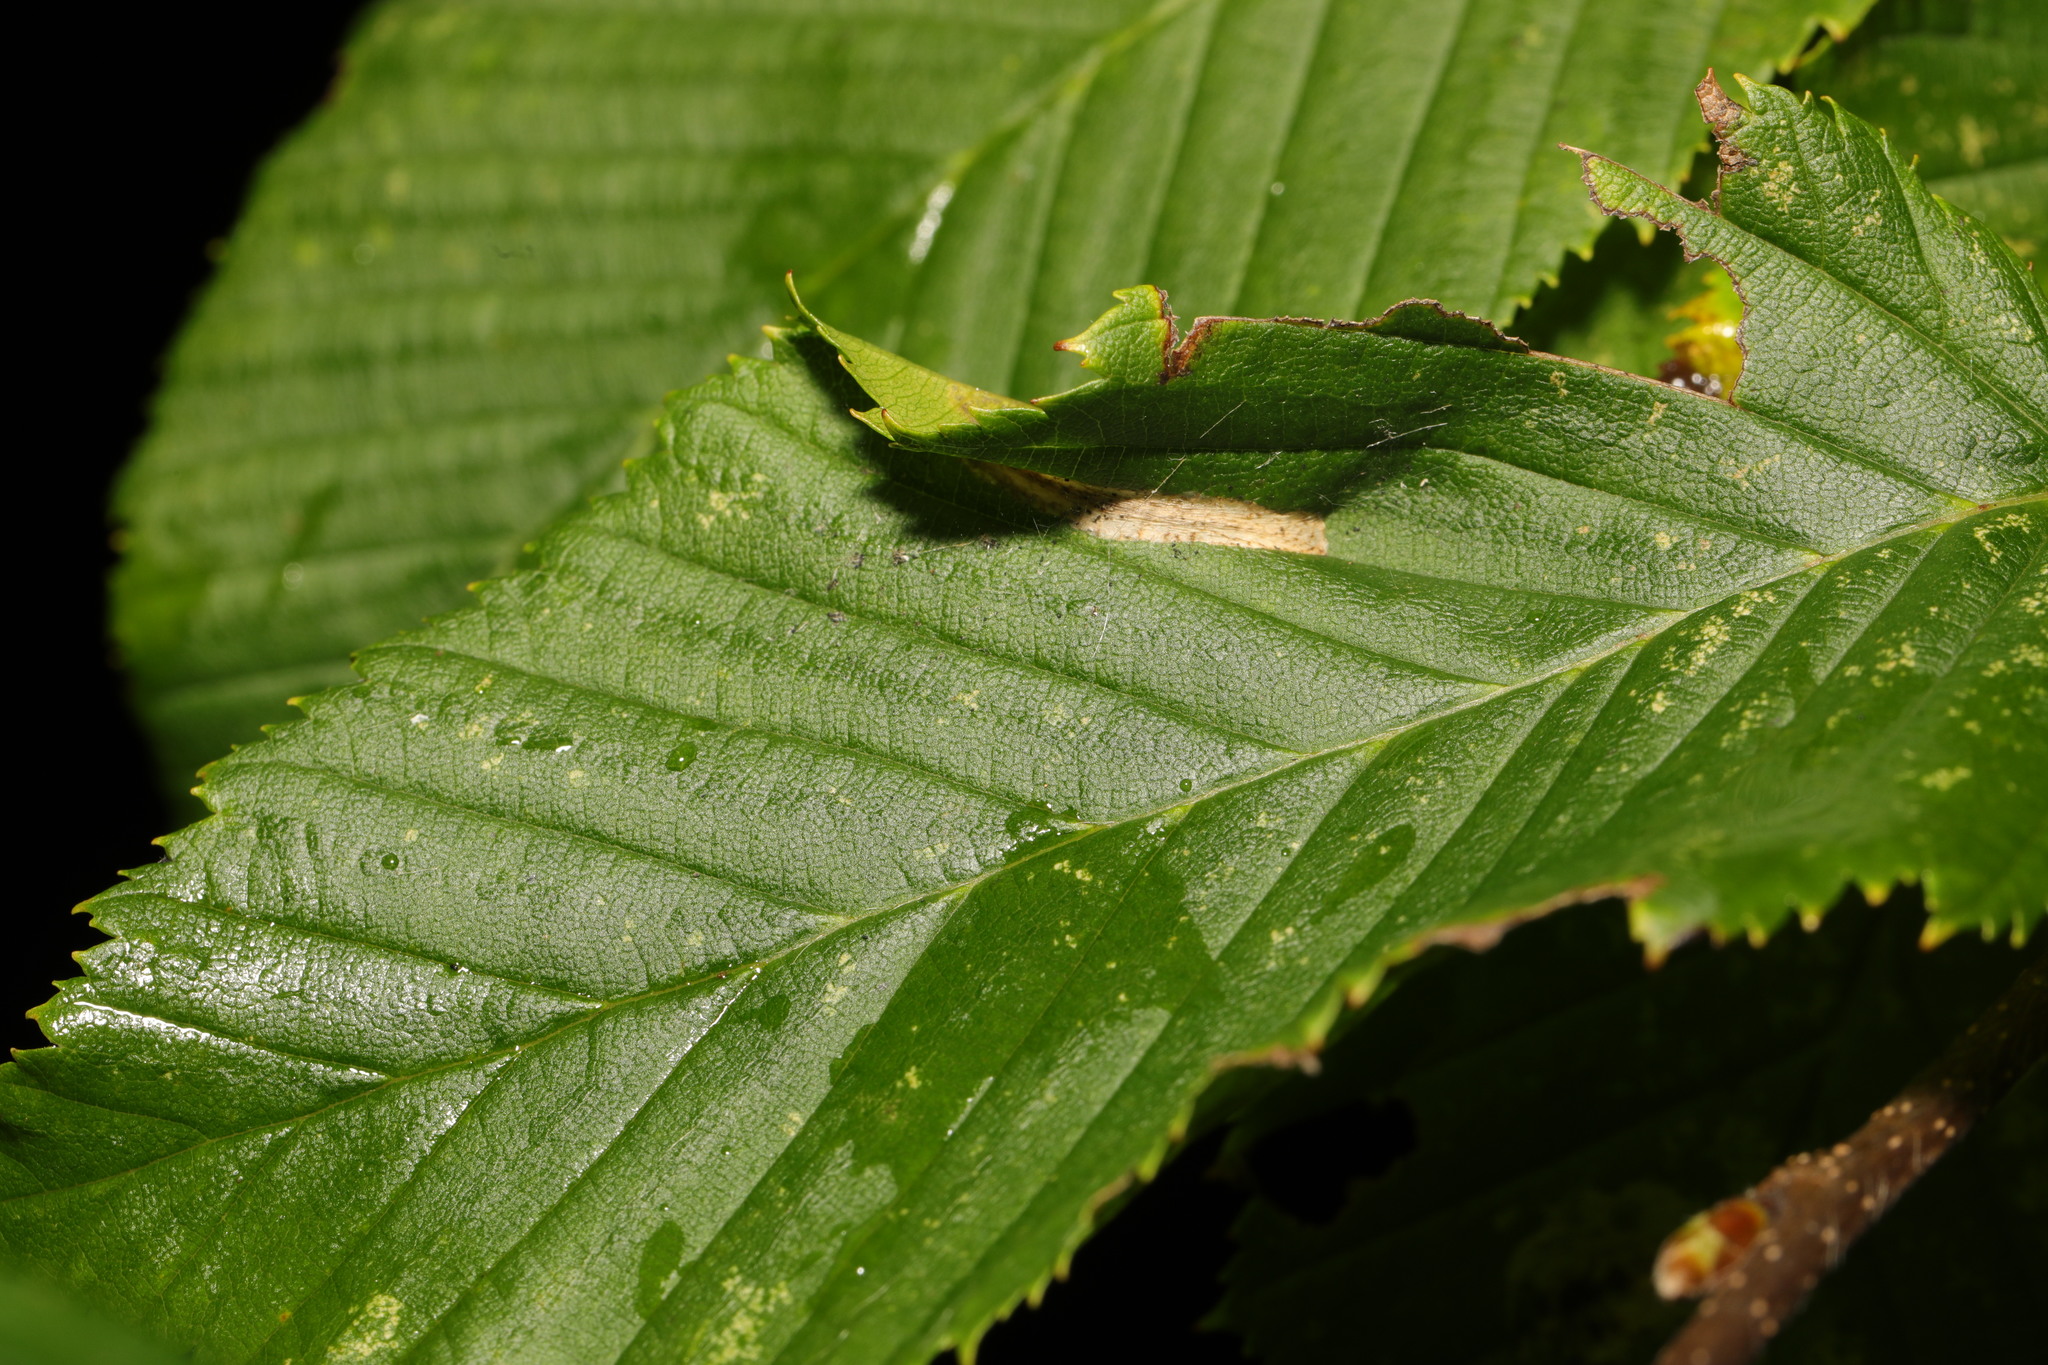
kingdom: Animalia
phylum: Arthropoda
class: Insecta
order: Lepidoptera
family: Gracillariidae
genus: Phyllonorycter
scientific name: Phyllonorycter esperella
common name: Dark hornbeam midget
